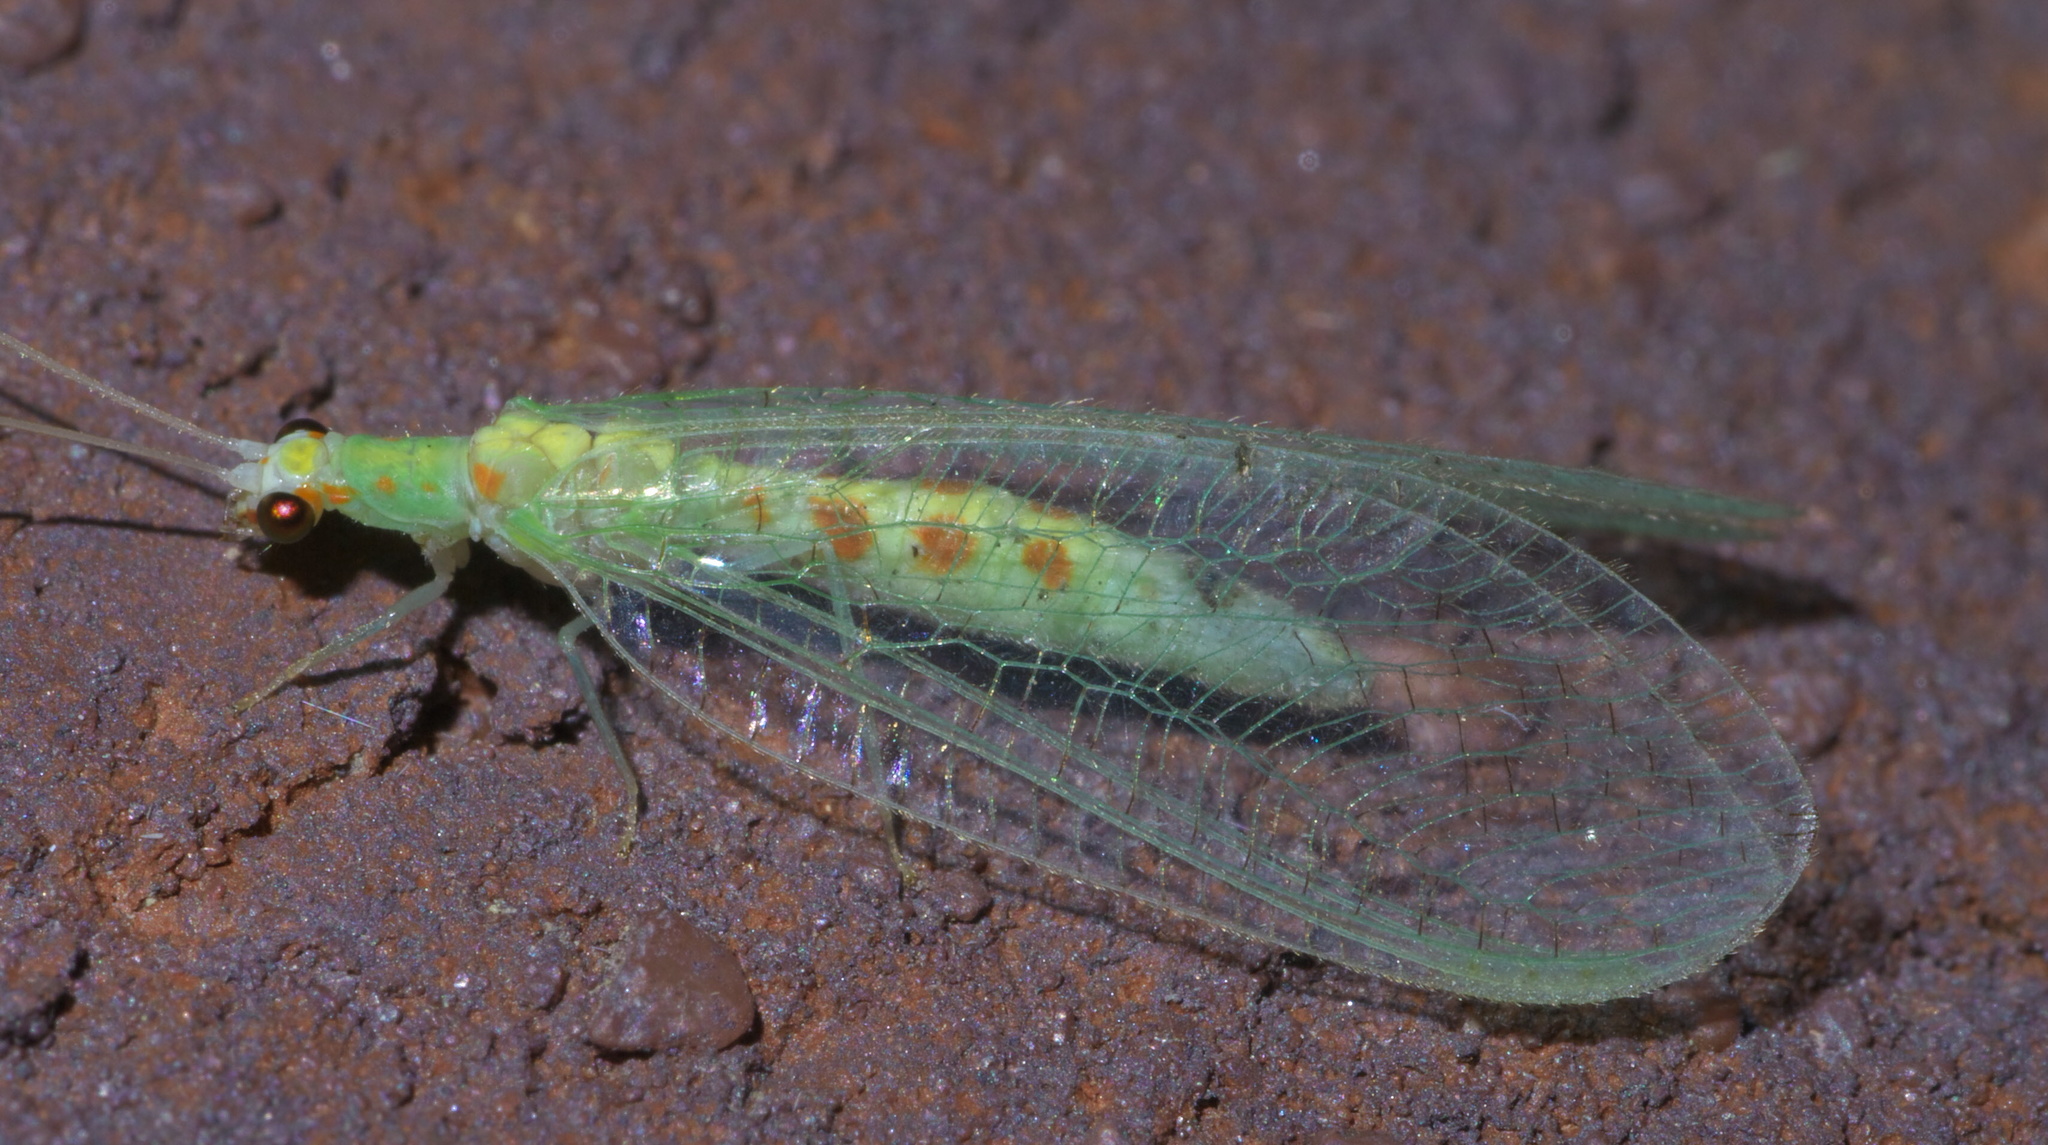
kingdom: Animalia
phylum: Arthropoda
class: Insecta
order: Neuroptera
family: Chrysopidae
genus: Chrysopa
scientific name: Chrysopa quadripunctata
